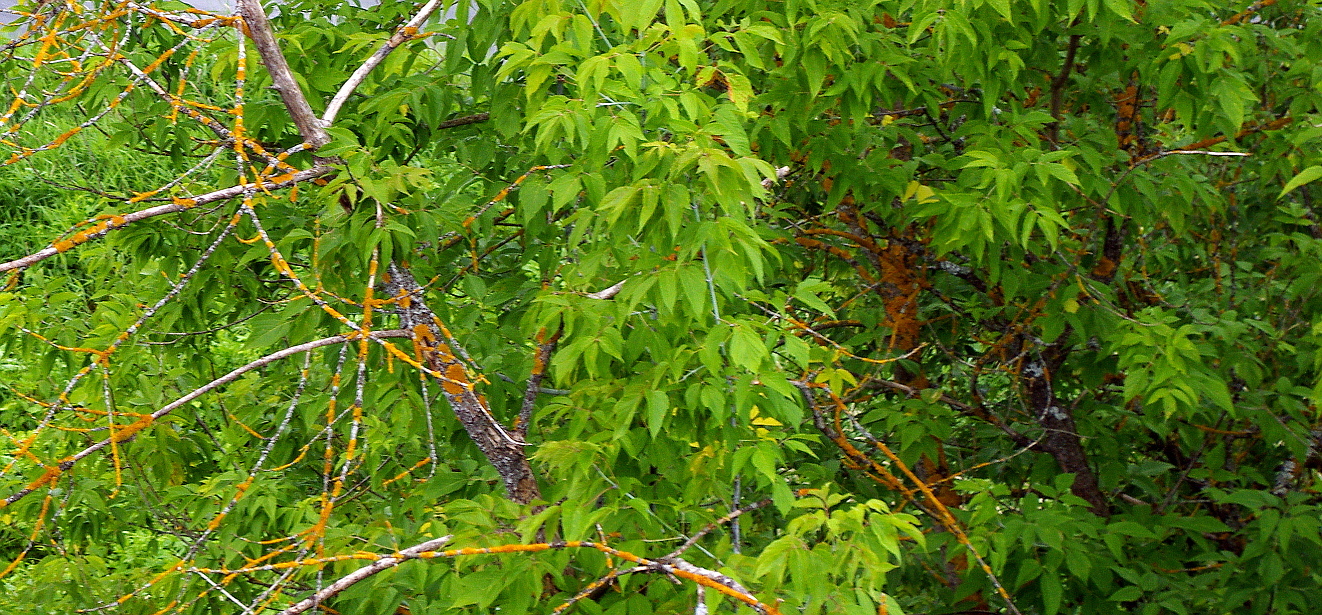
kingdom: Plantae
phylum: Tracheophyta
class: Magnoliopsida
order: Sapindales
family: Sapindaceae
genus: Acer
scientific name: Acer negundo
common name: Ashleaf maple
